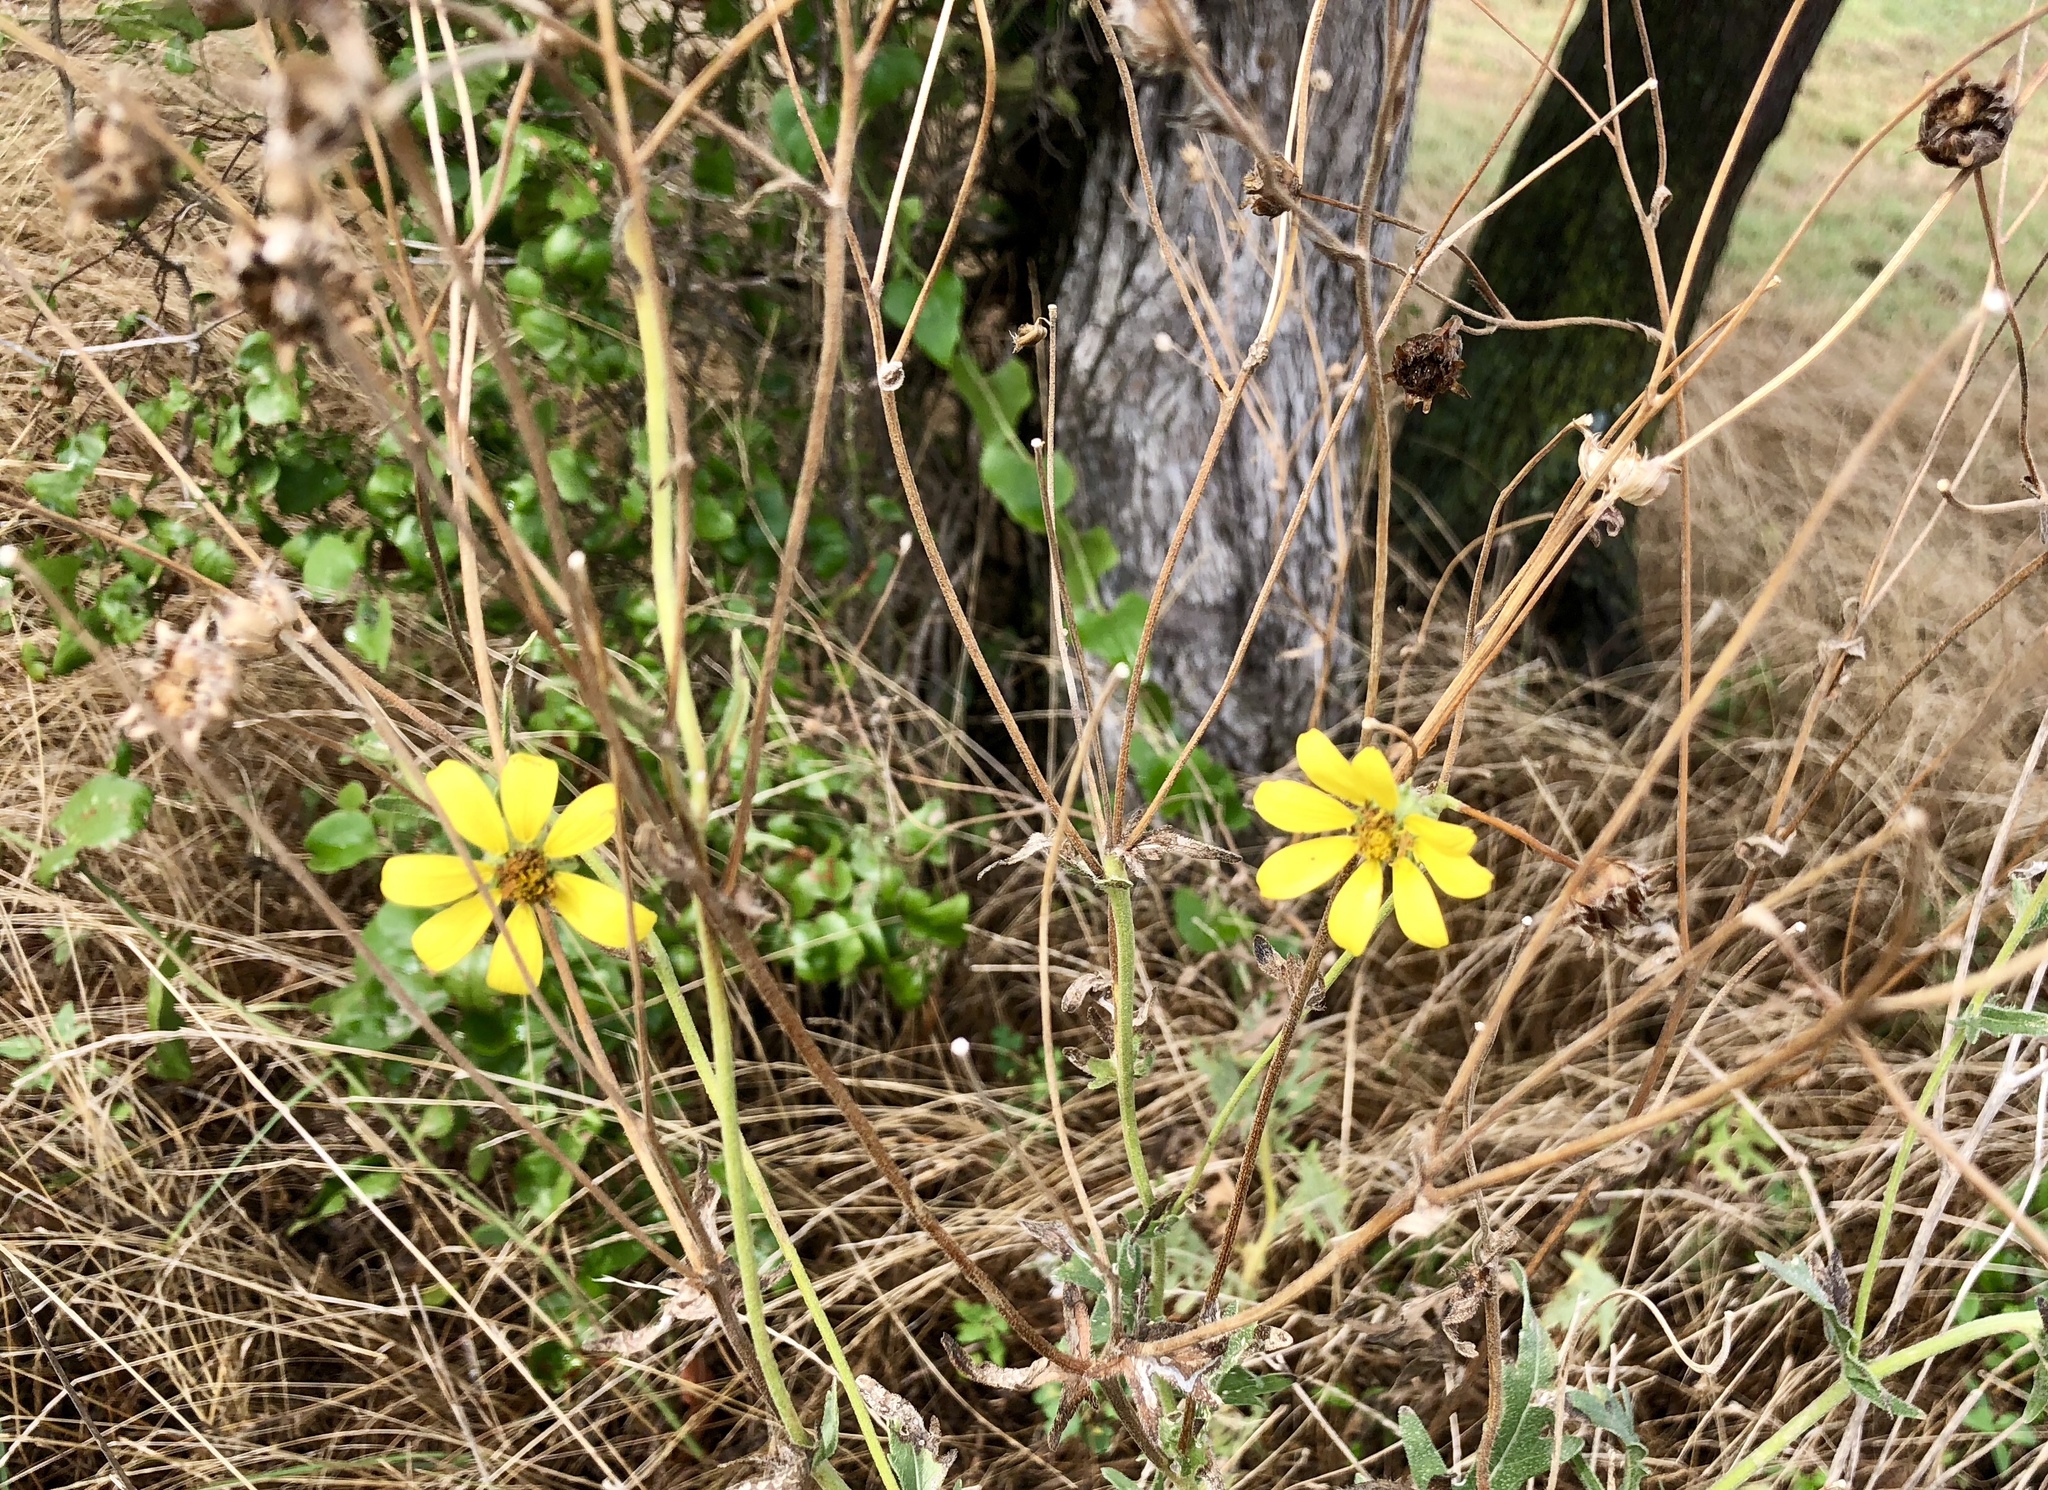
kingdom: Plantae
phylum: Tracheophyta
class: Magnoliopsida
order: Asterales
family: Asteraceae
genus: Engelmannia
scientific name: Engelmannia peristenia
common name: Engelmann's daisy
